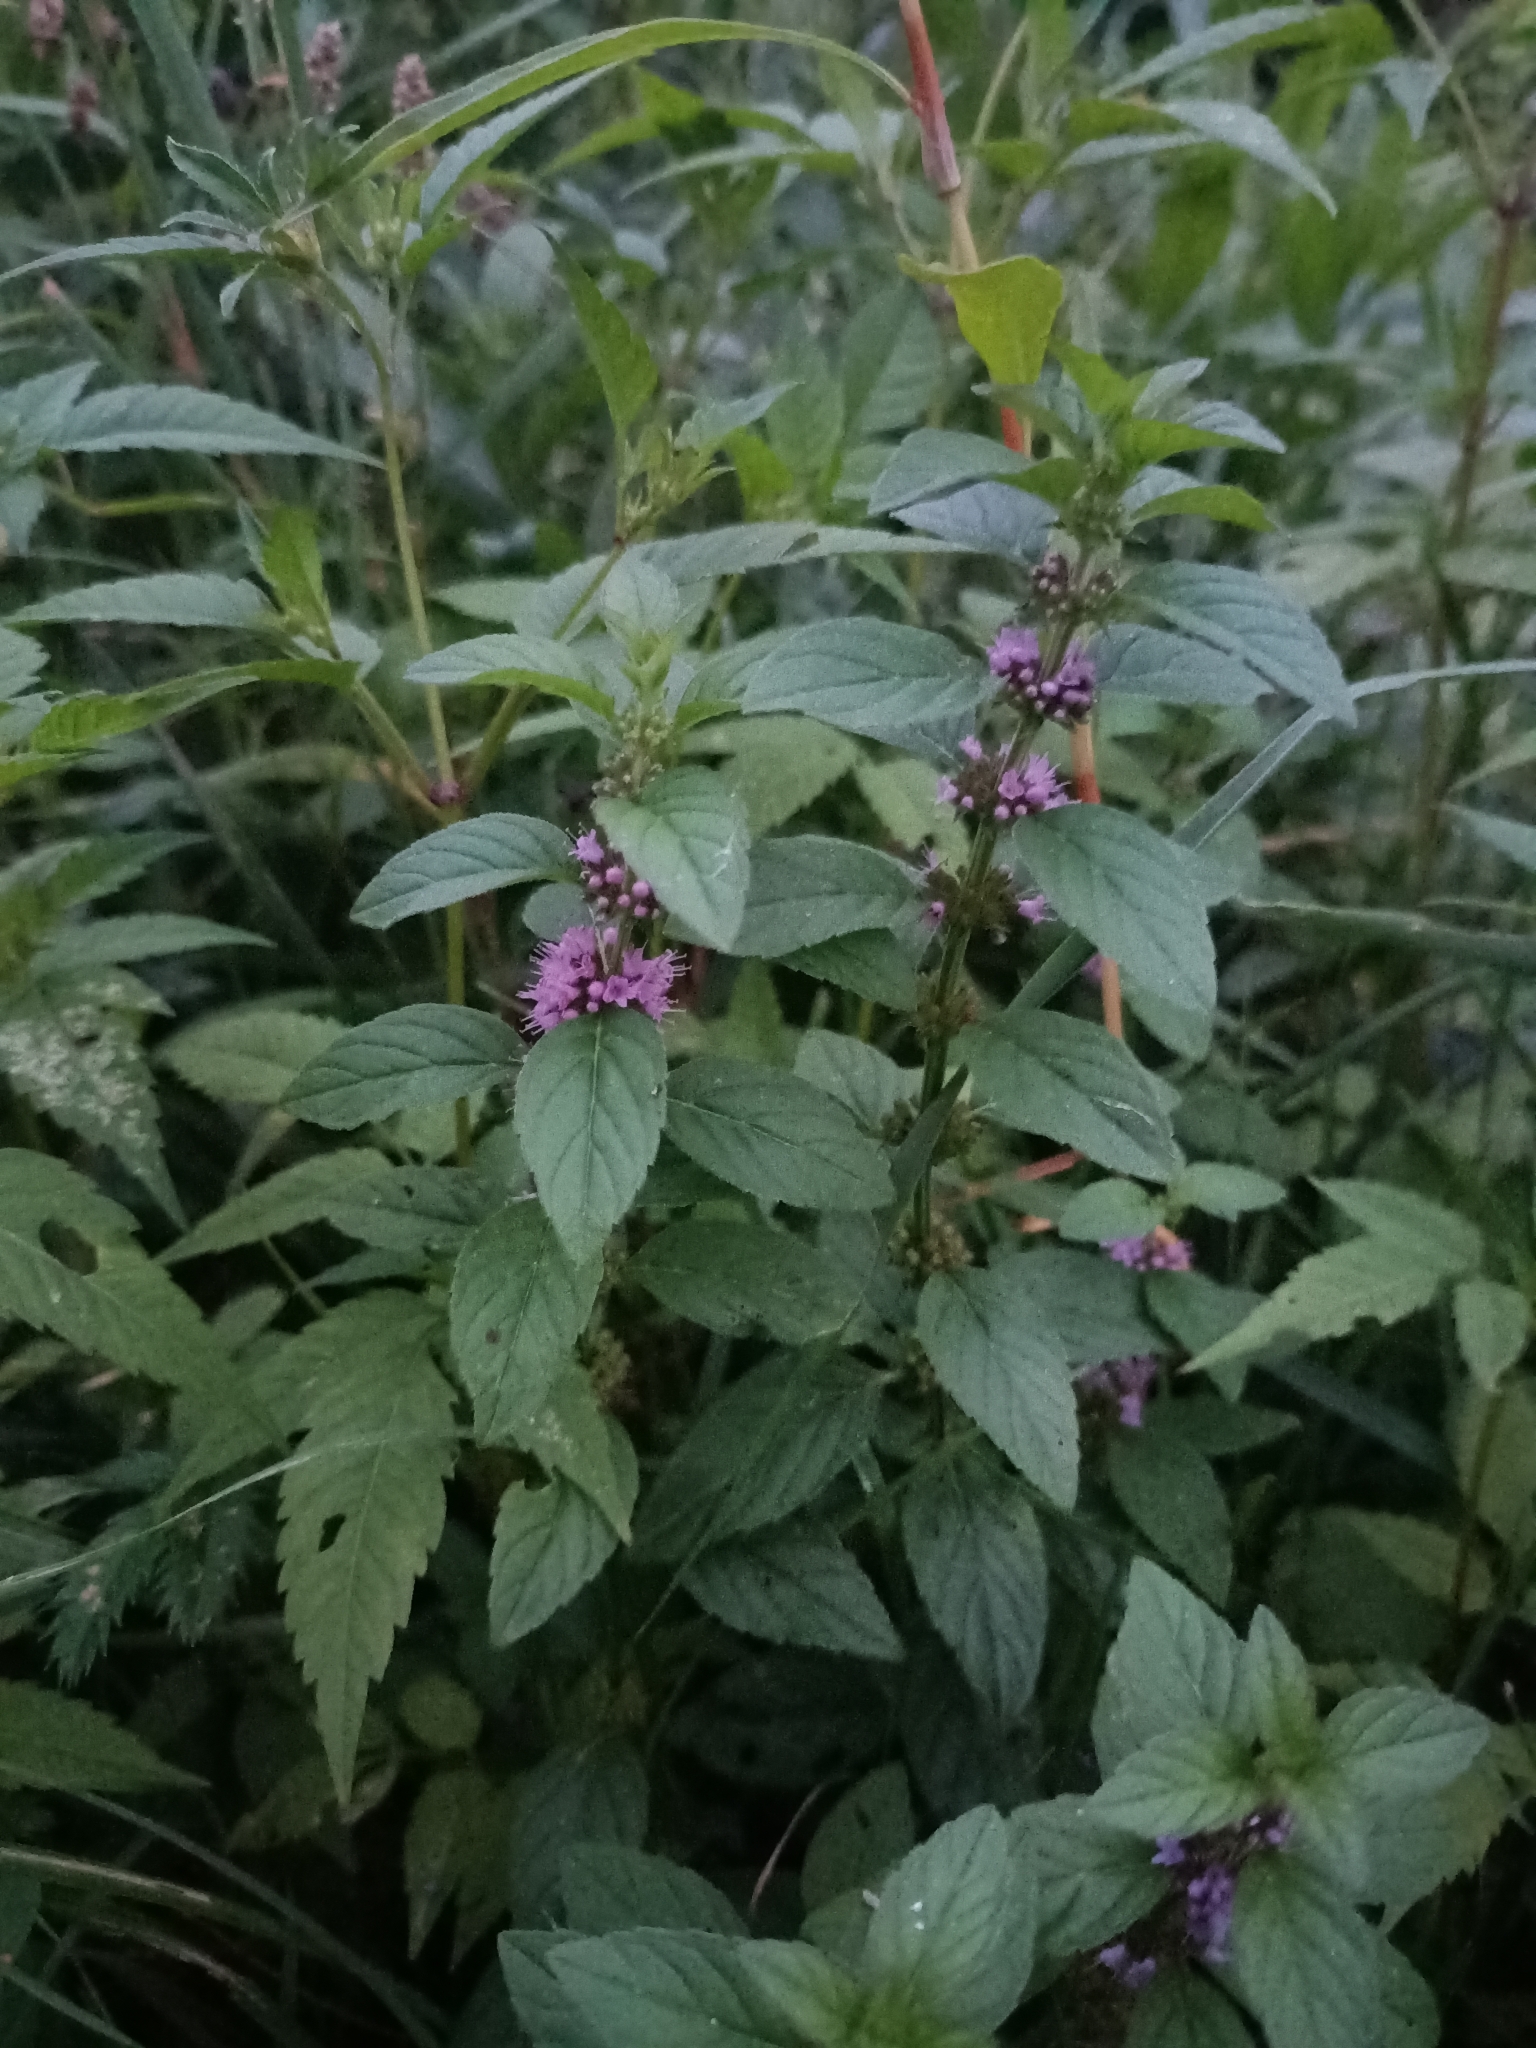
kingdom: Plantae
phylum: Tracheophyta
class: Magnoliopsida
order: Lamiales
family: Lamiaceae
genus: Mentha
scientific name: Mentha arvensis
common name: Corn mint
